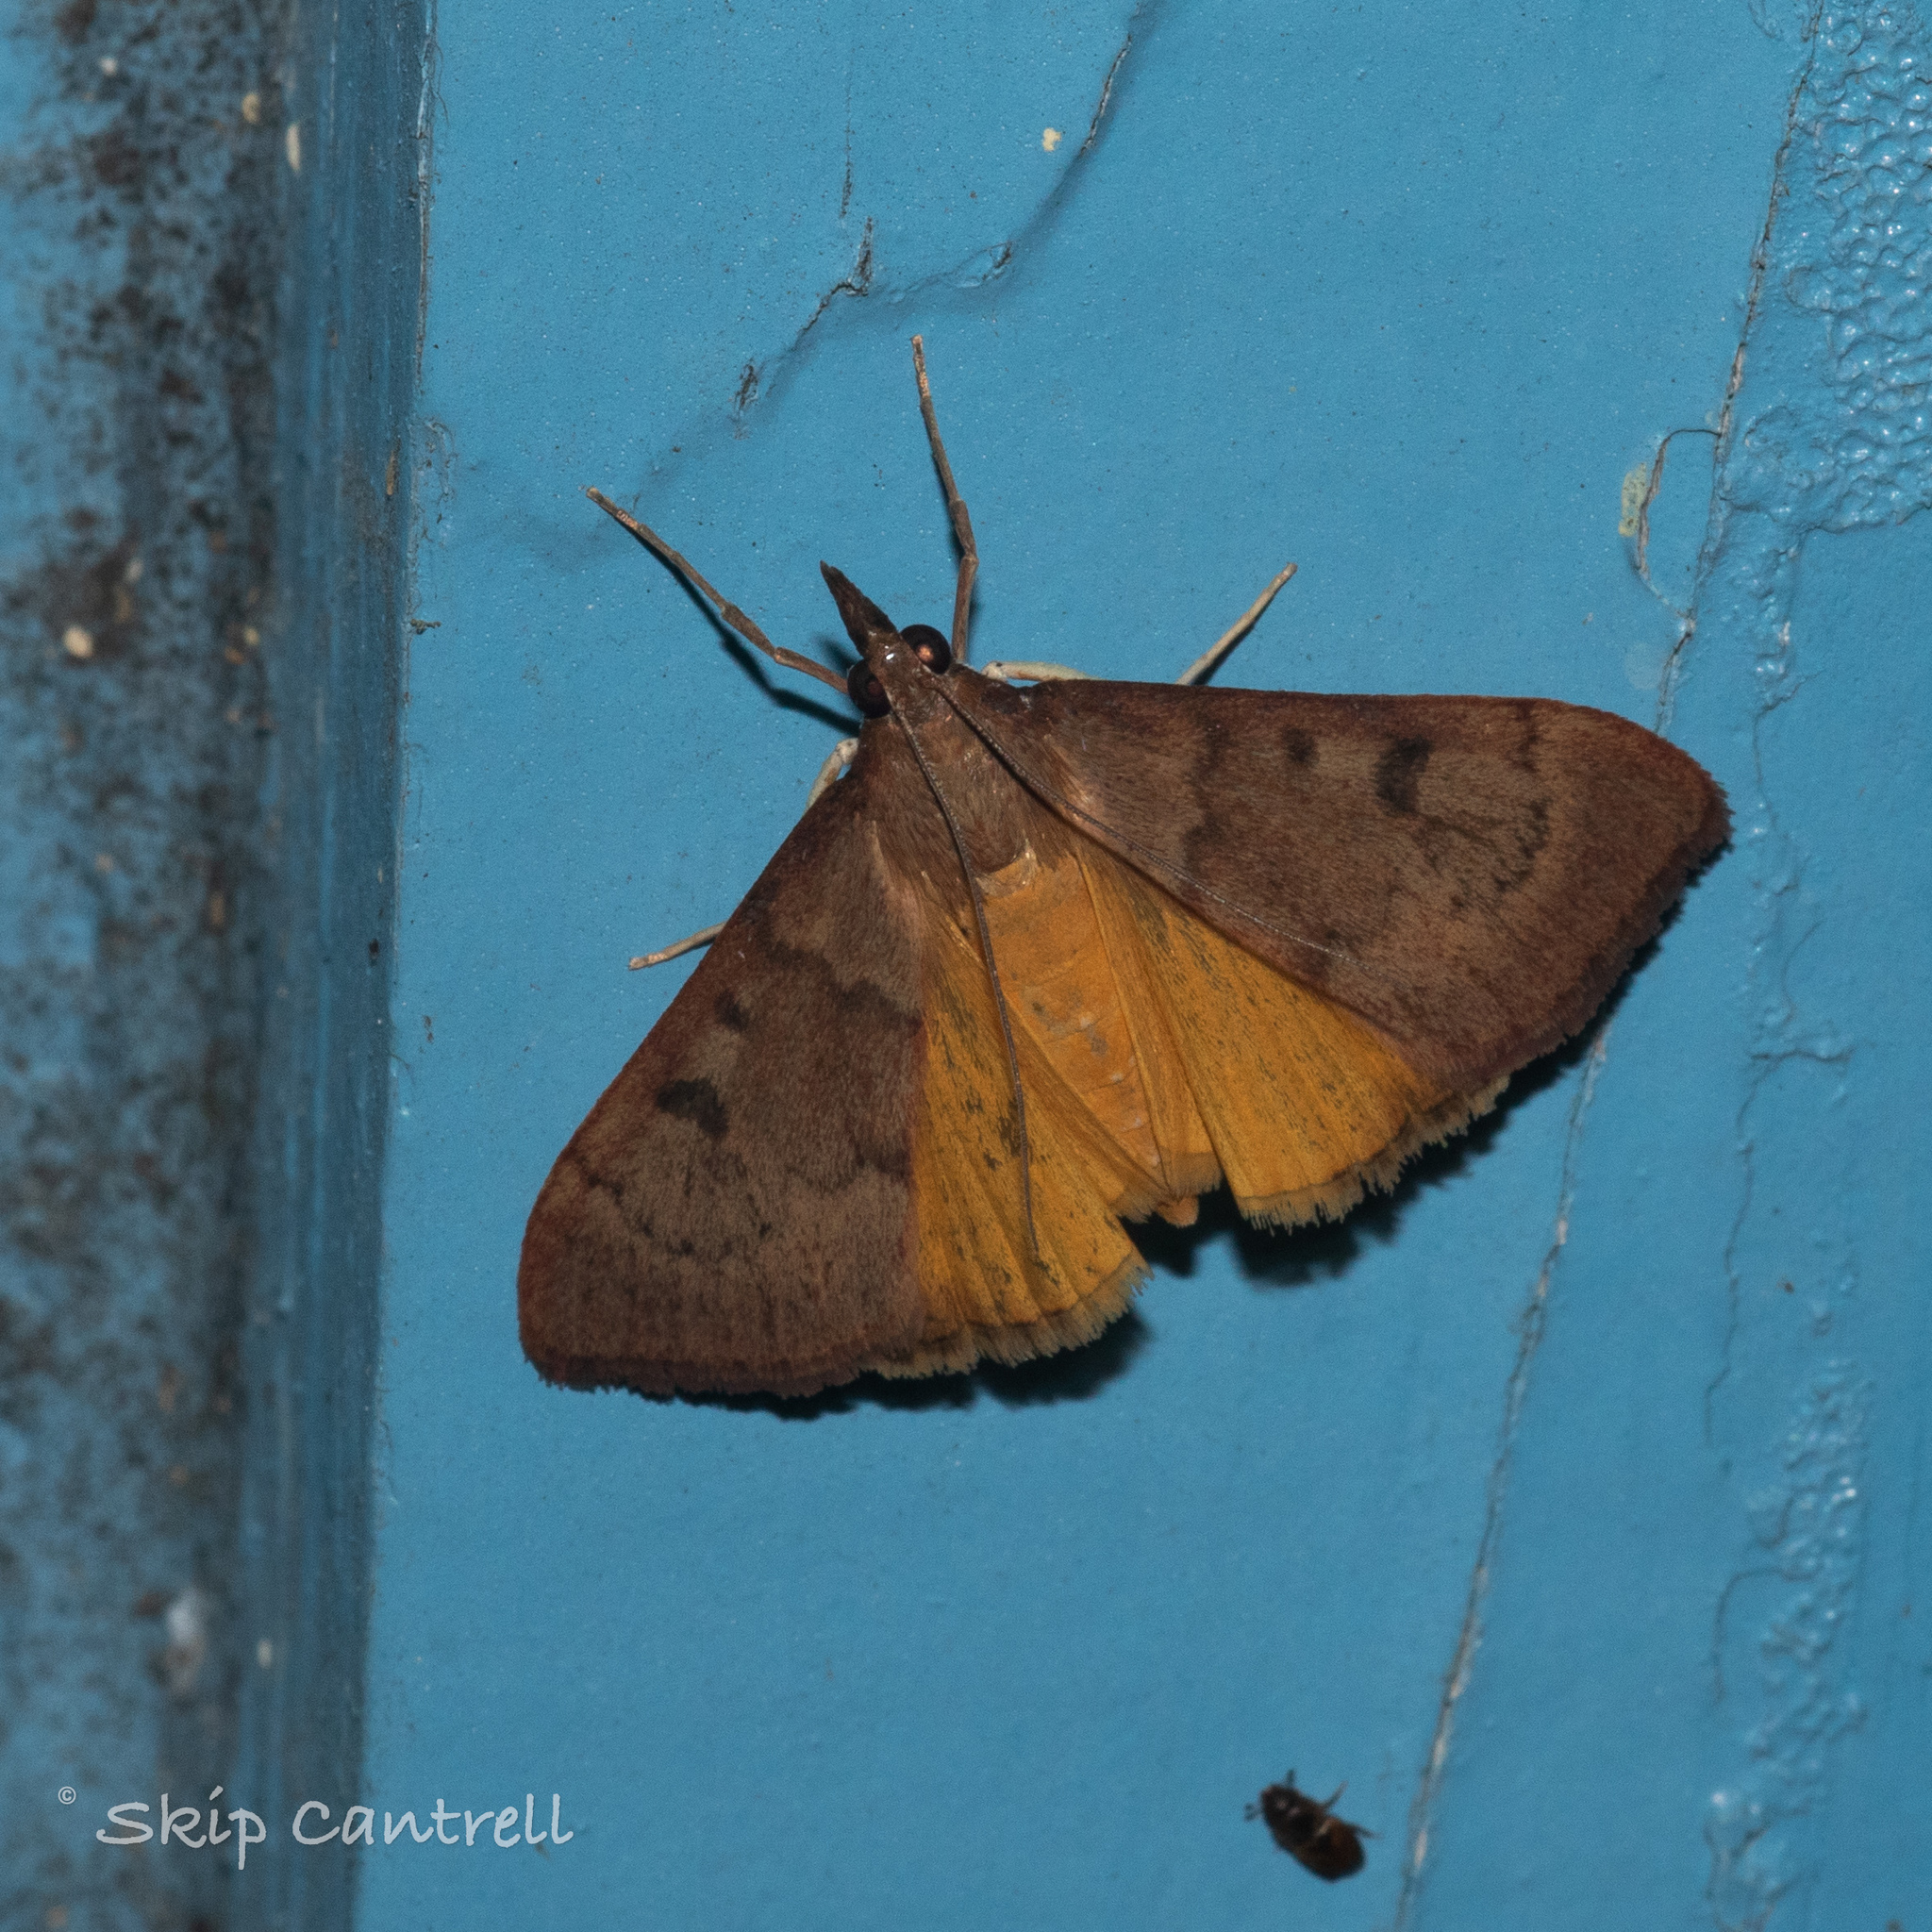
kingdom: Animalia
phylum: Arthropoda
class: Insecta
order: Lepidoptera
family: Crambidae
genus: Uresiphita
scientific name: Uresiphita reversalis
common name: Genista broom moth
